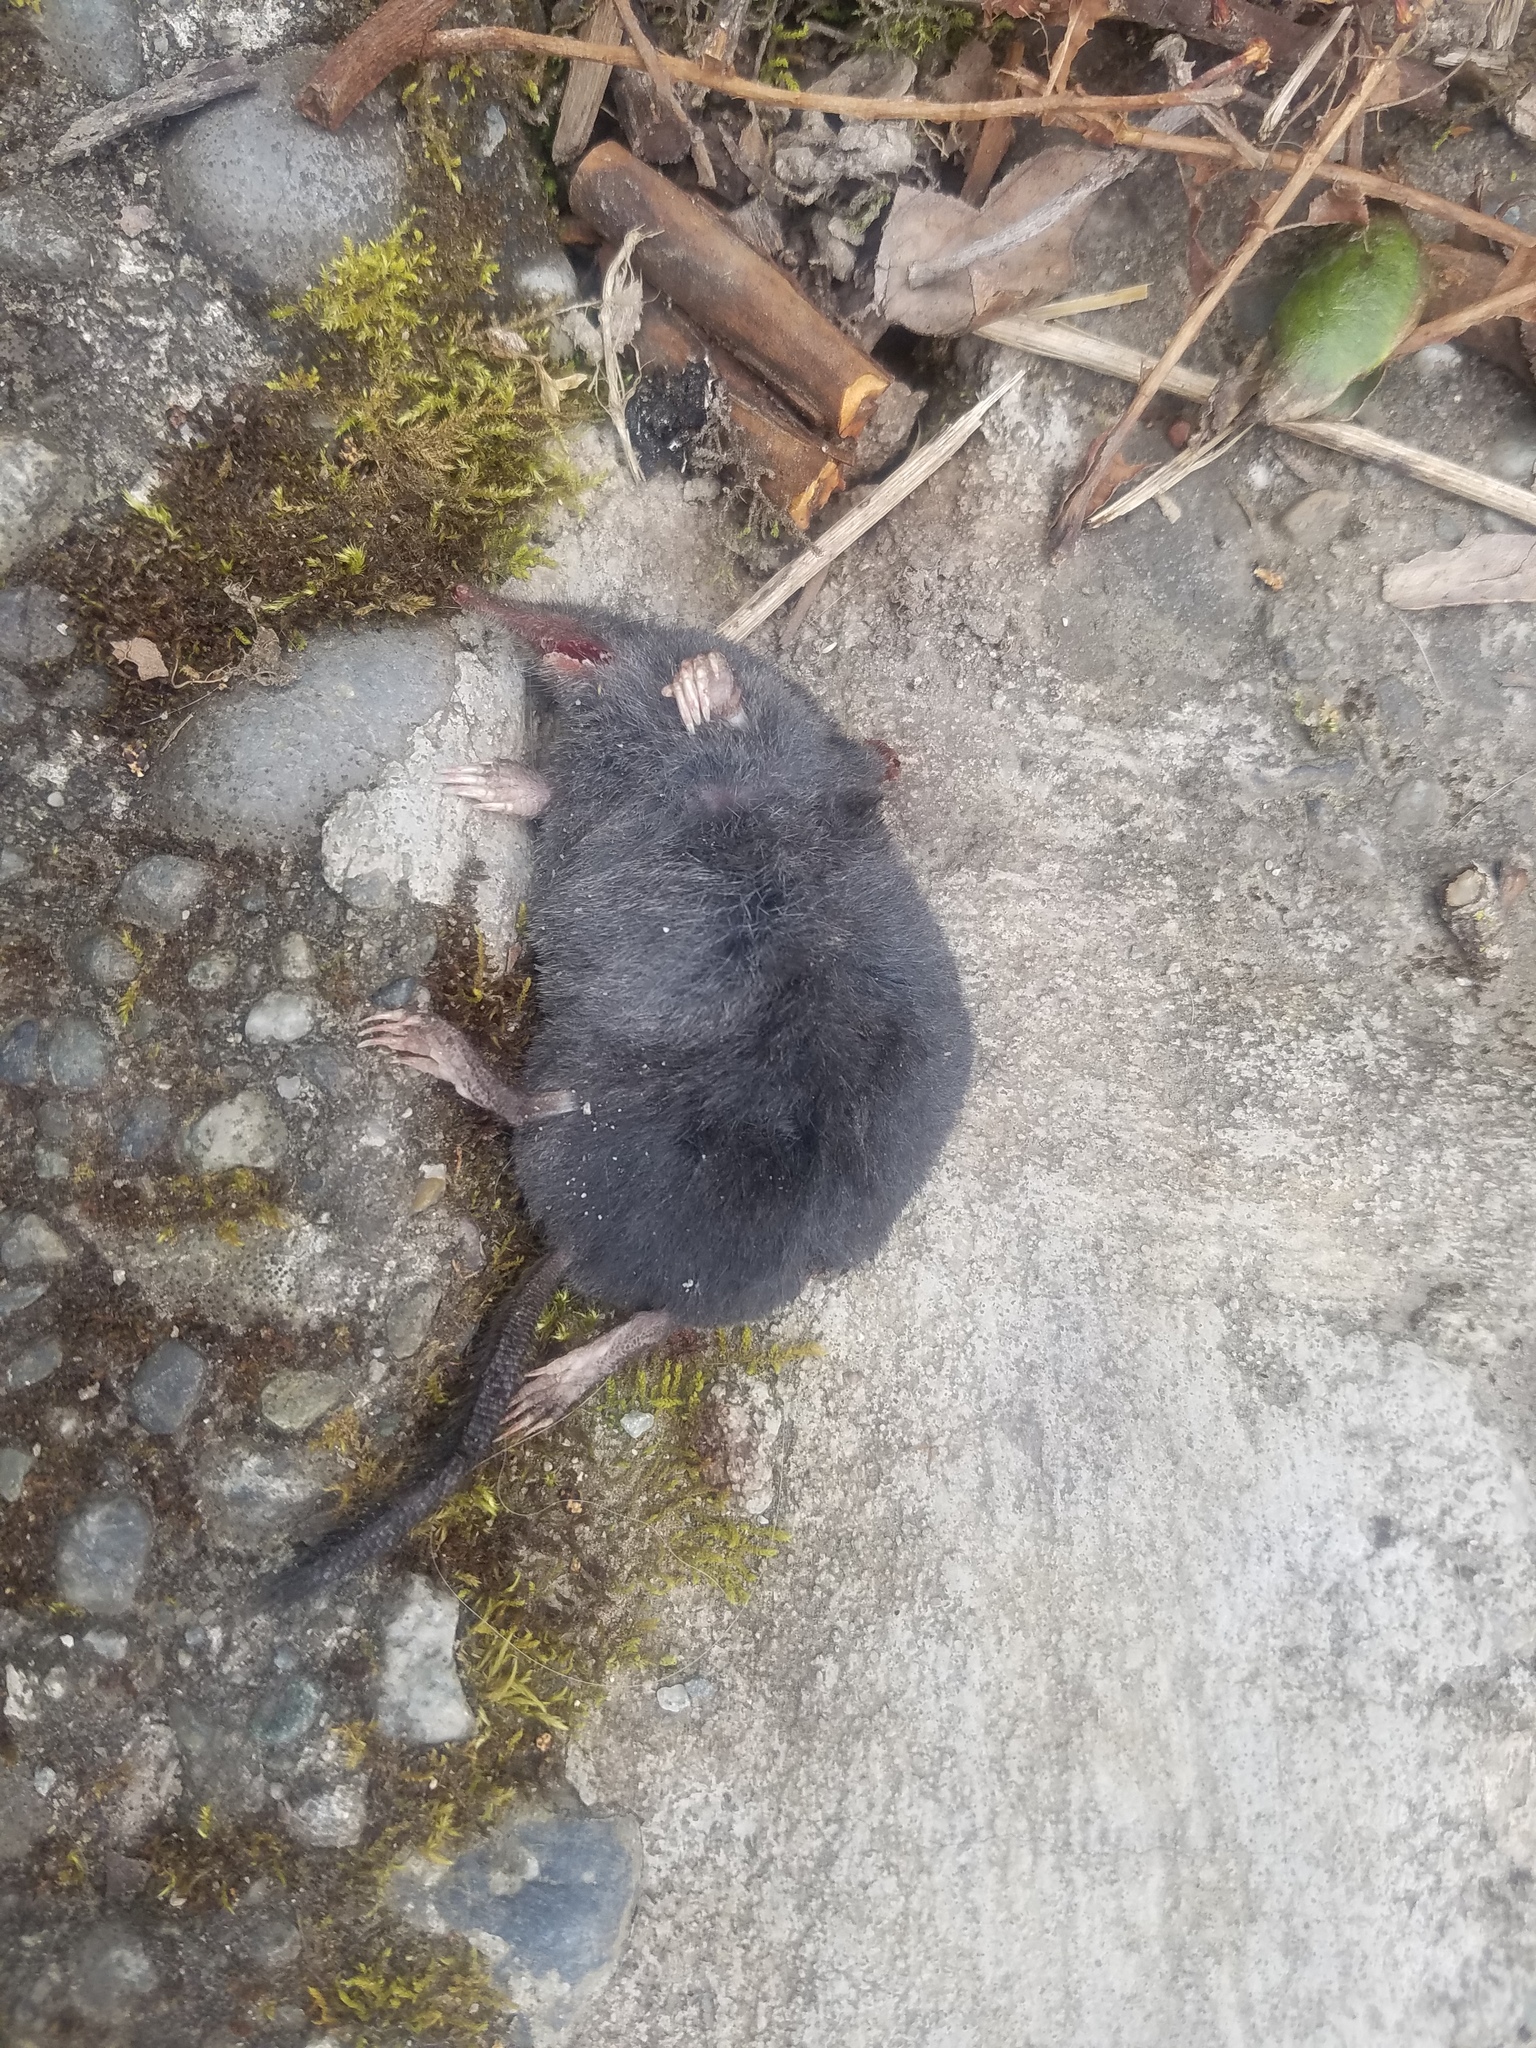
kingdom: Animalia
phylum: Chordata
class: Mammalia
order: Soricomorpha
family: Talpidae
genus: Neurotrichus
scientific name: Neurotrichus gibbsii
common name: American shrew mole
